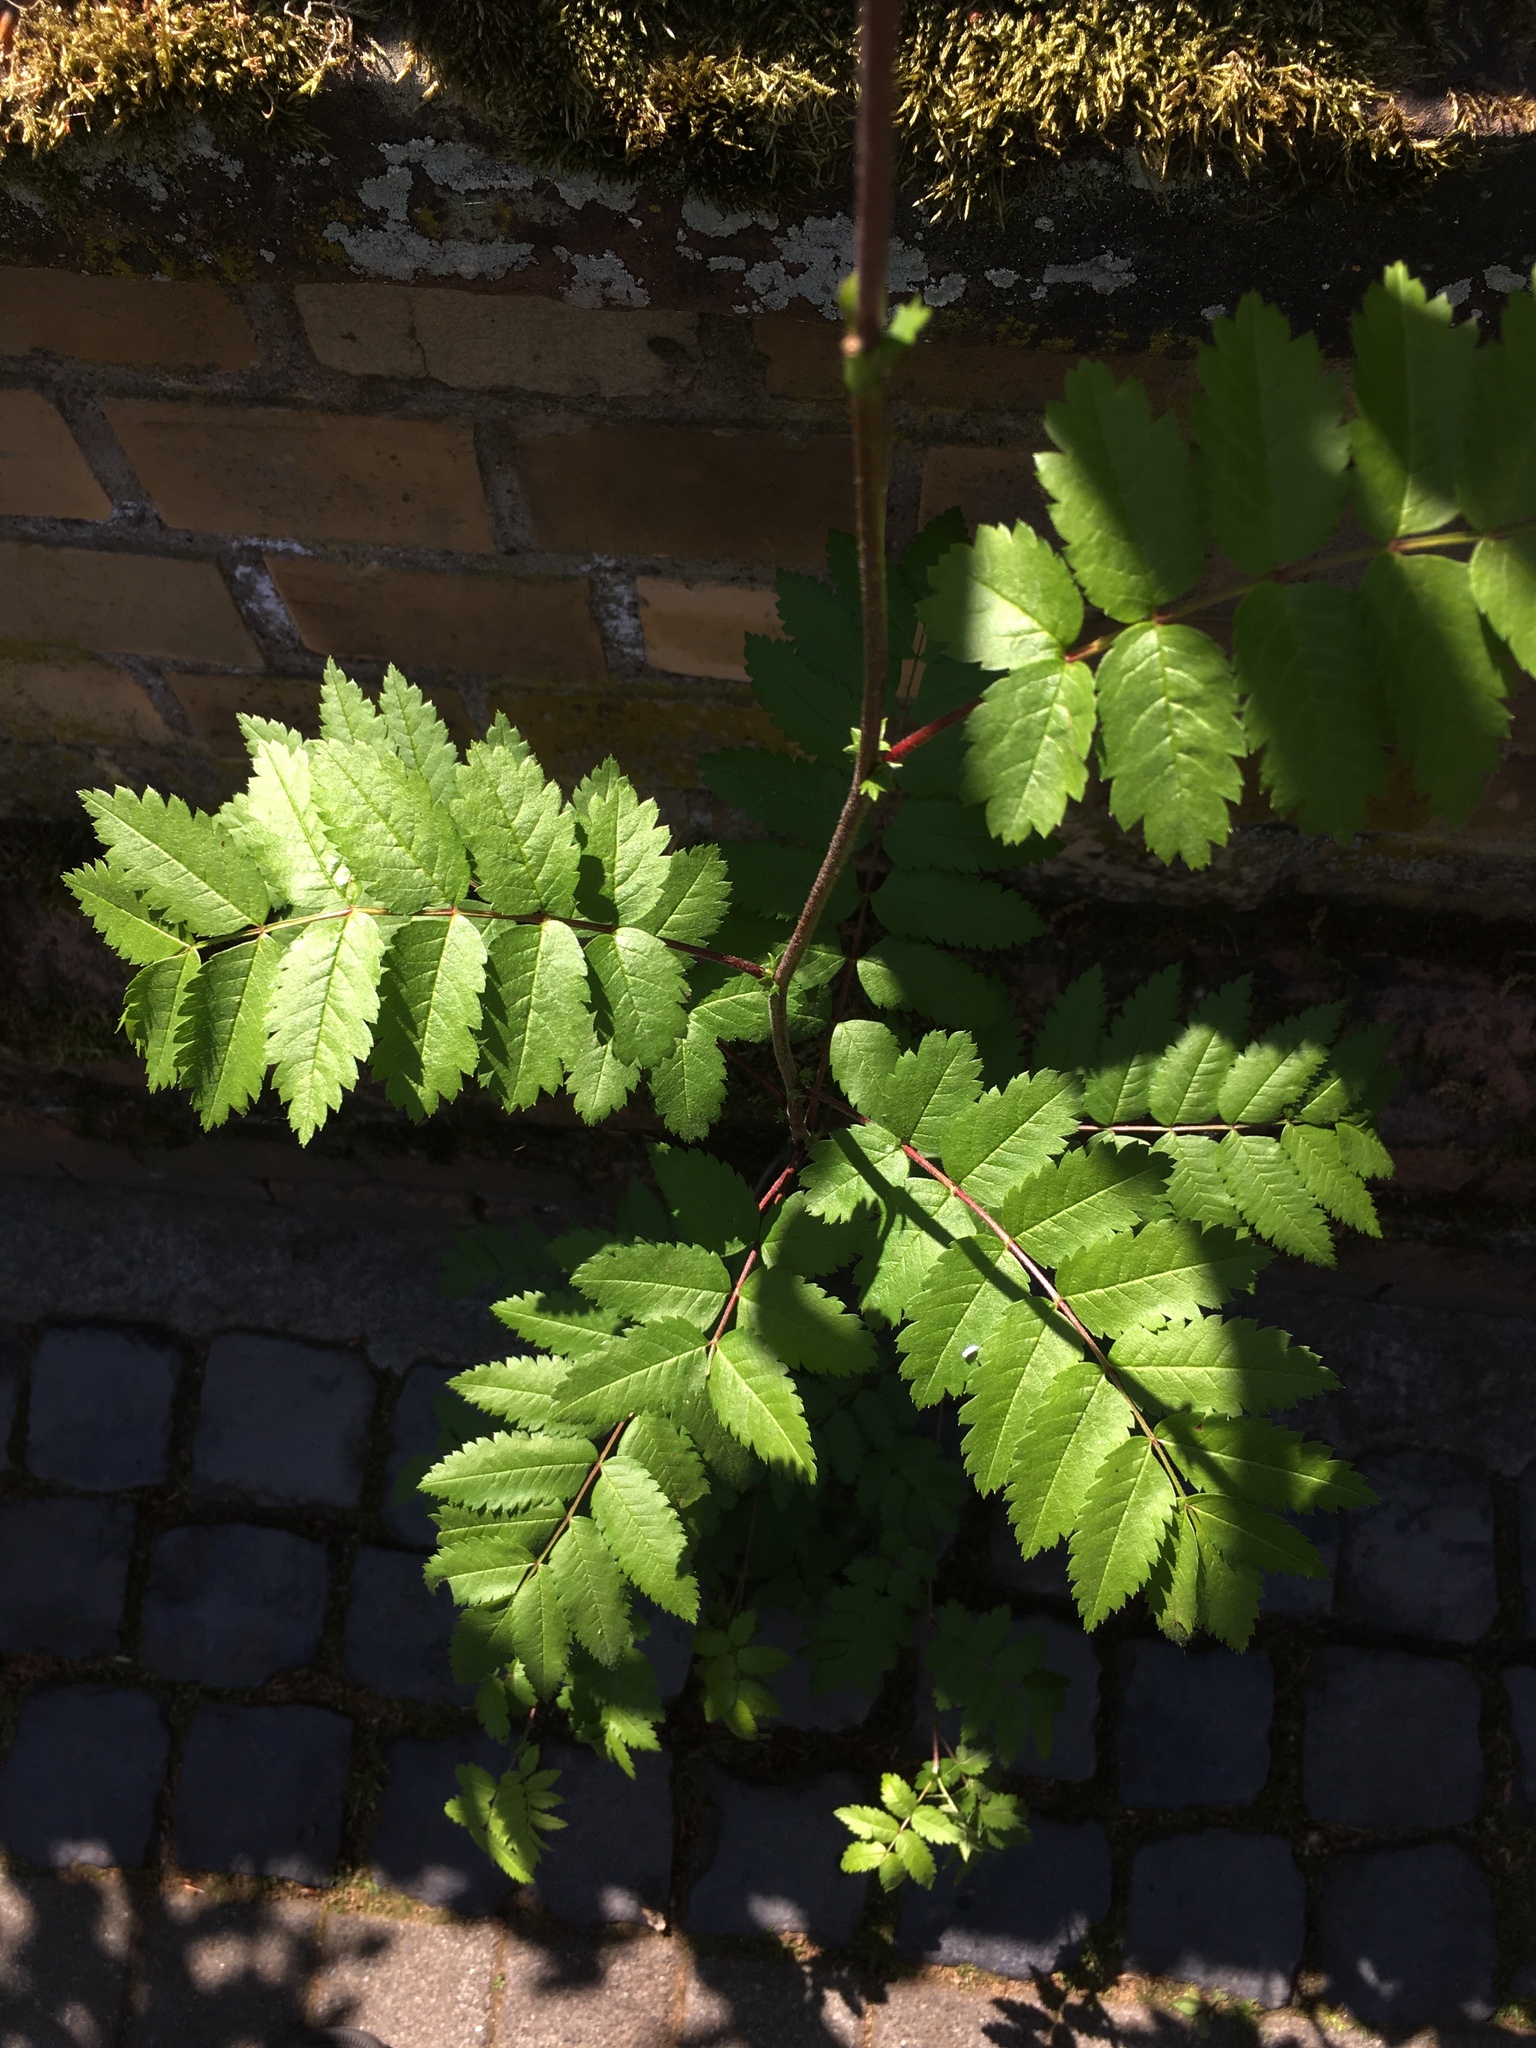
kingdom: Plantae
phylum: Tracheophyta
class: Magnoliopsida
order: Rosales
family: Rosaceae
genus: Sorbus
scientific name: Sorbus aucuparia
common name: Rowan
